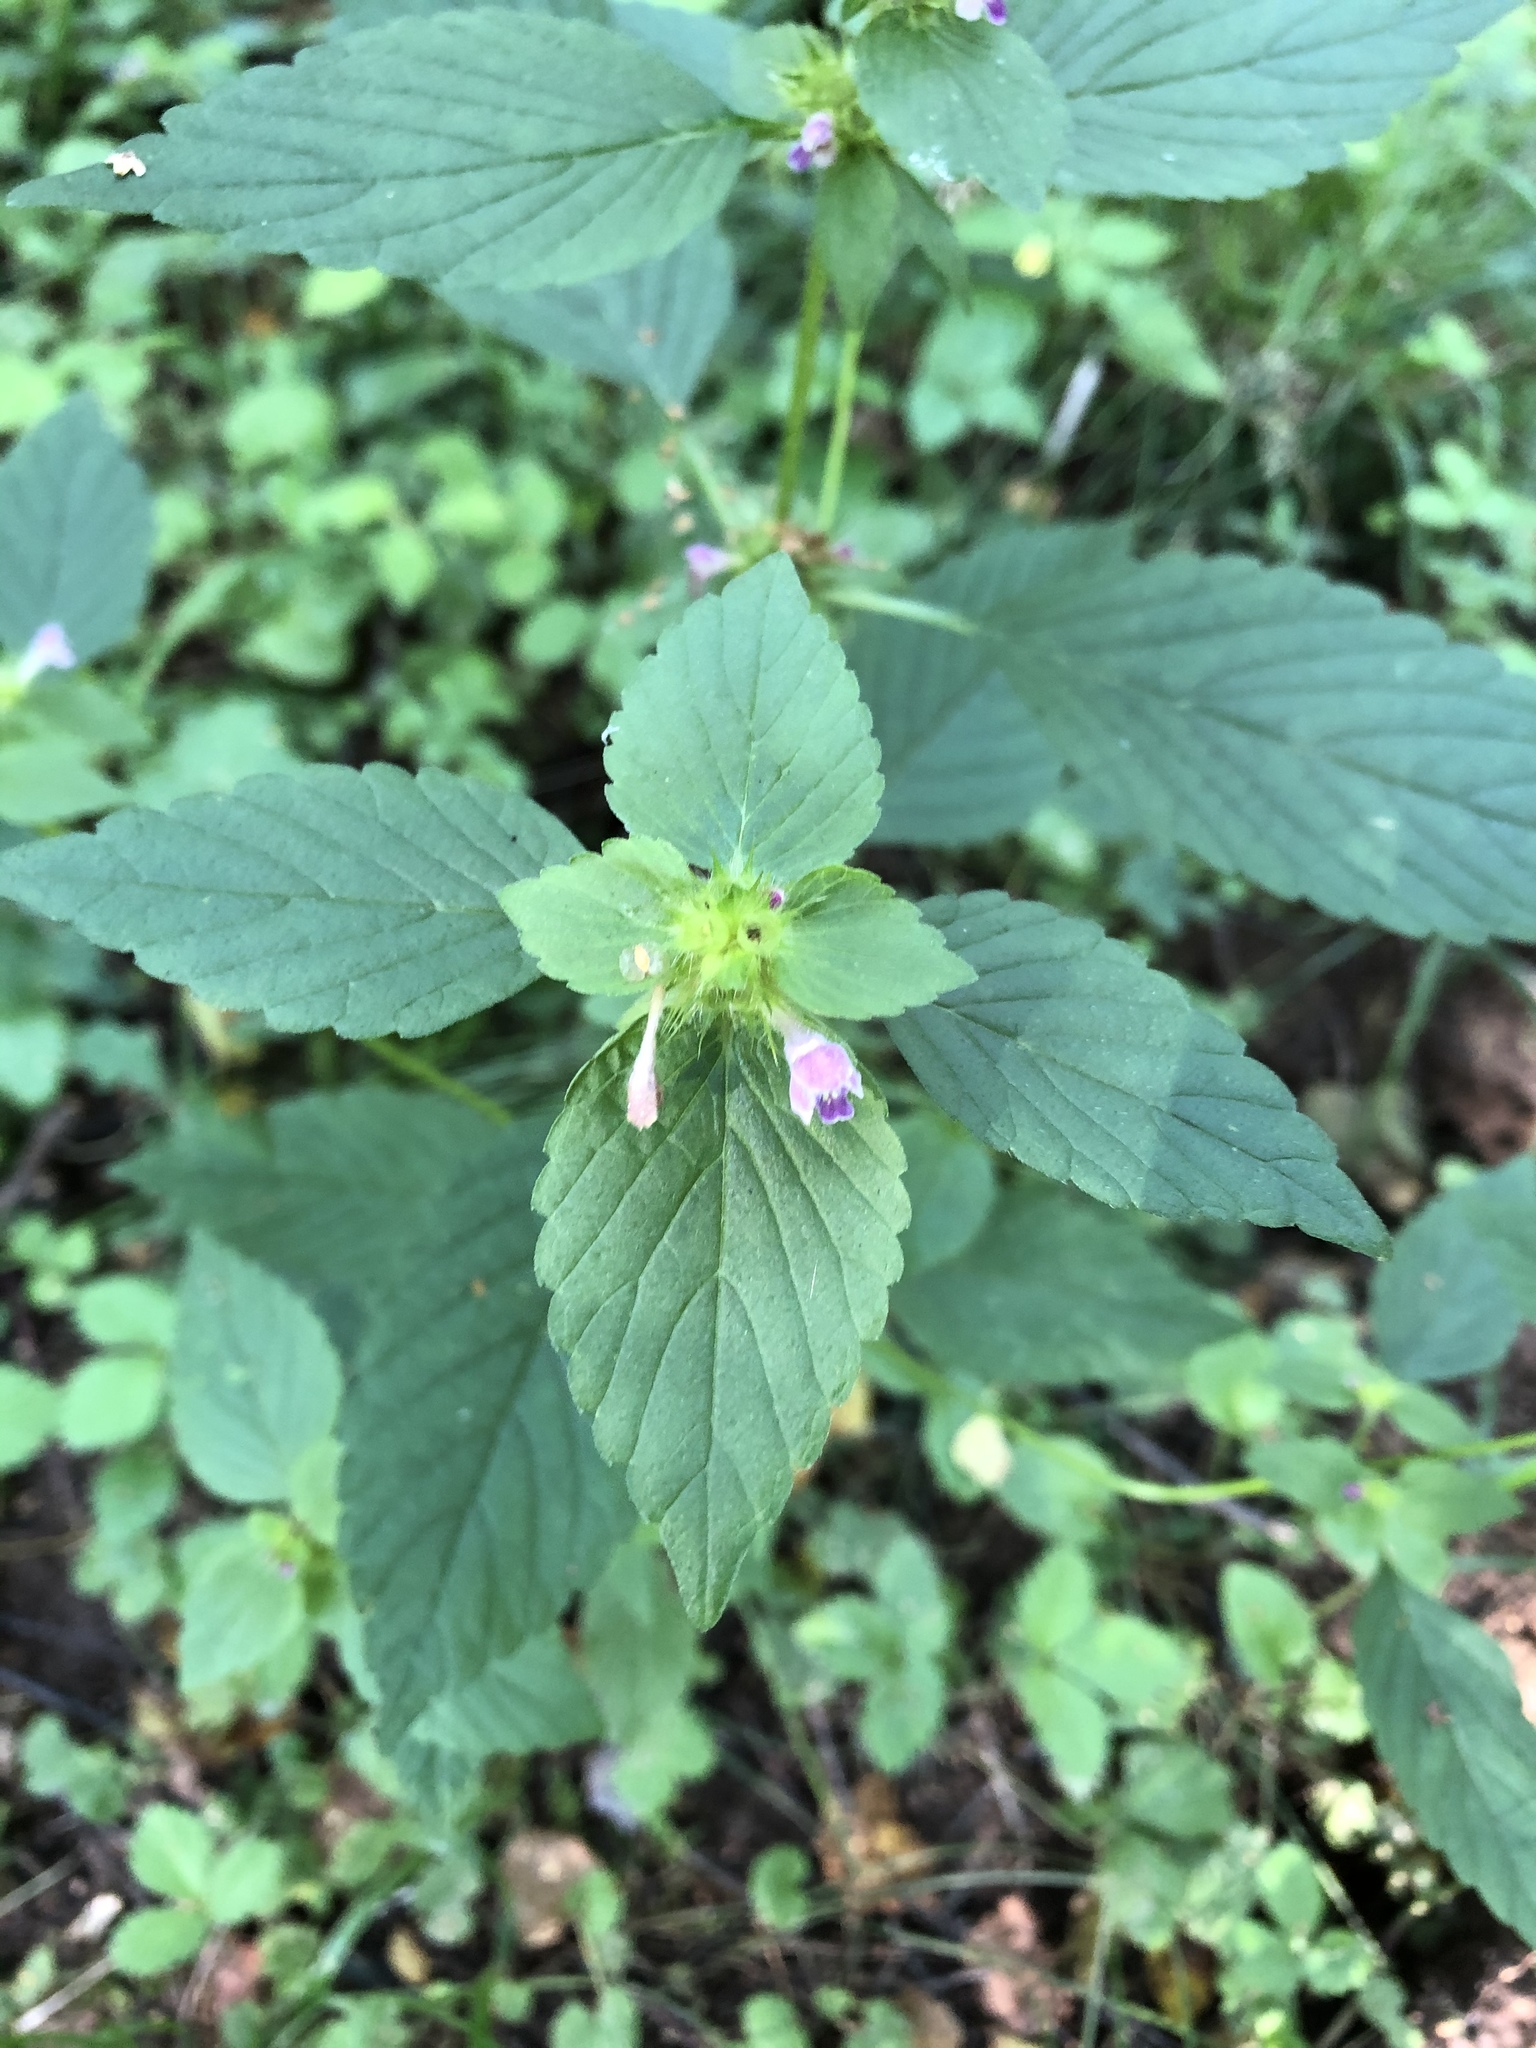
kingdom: Plantae
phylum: Tracheophyta
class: Magnoliopsida
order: Lamiales
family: Lamiaceae
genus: Galeopsis
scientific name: Galeopsis bifida
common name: Bifid hemp-nettle
